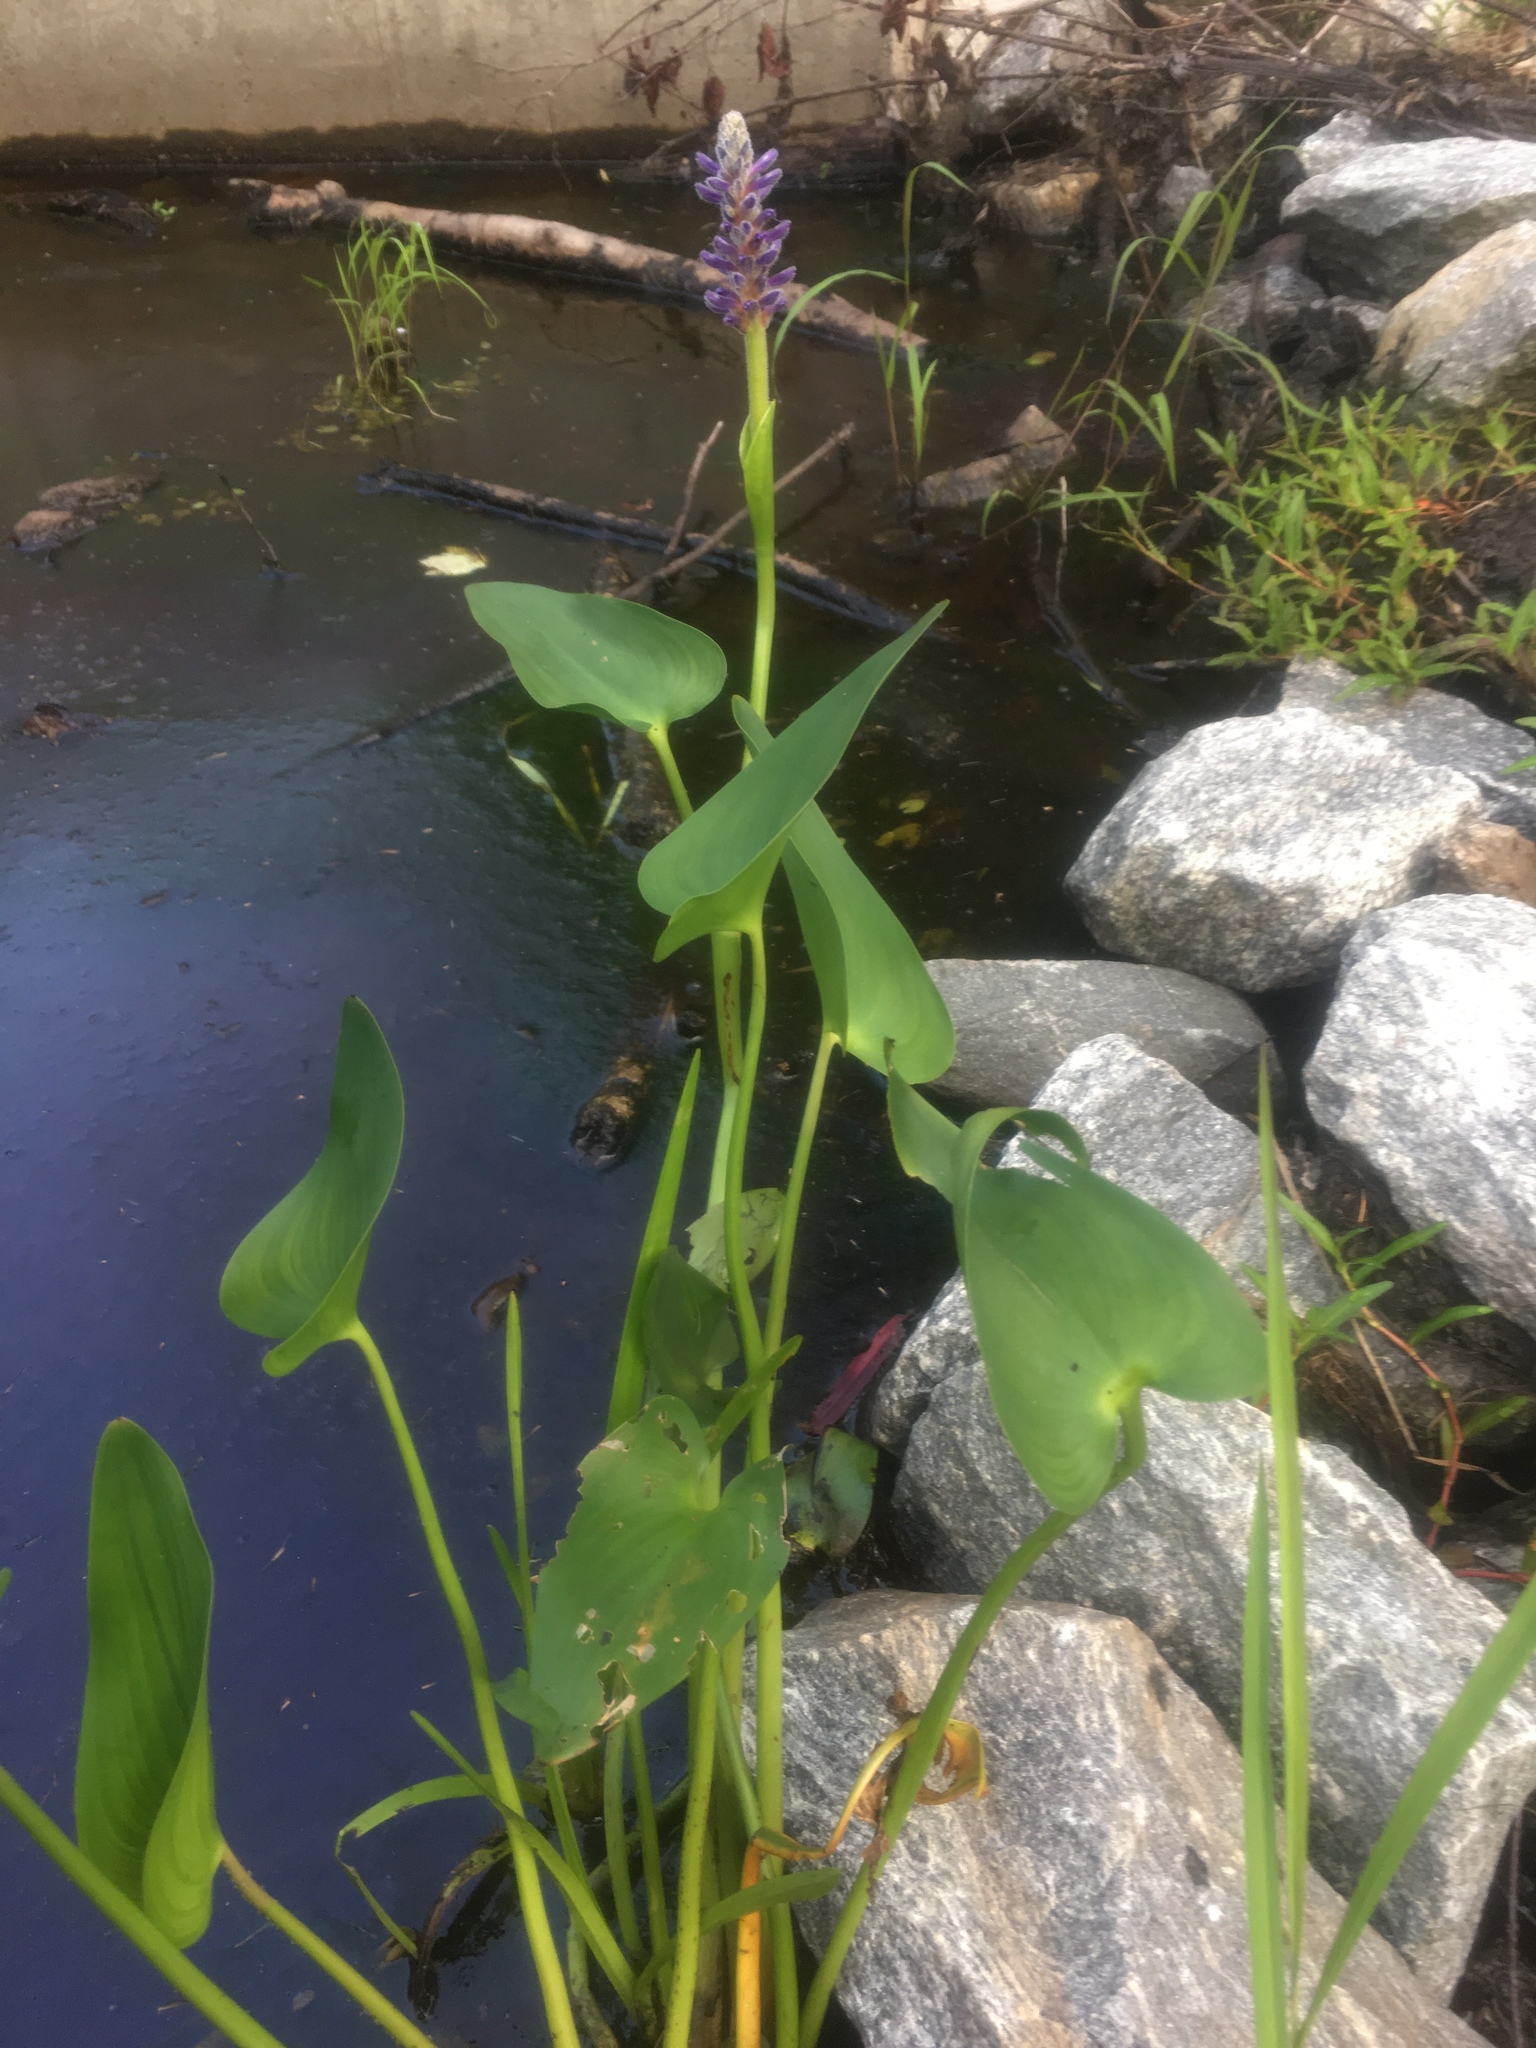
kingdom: Plantae
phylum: Tracheophyta
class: Liliopsida
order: Commelinales
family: Pontederiaceae
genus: Pontederia
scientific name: Pontederia cordata
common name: Pickerelweed
